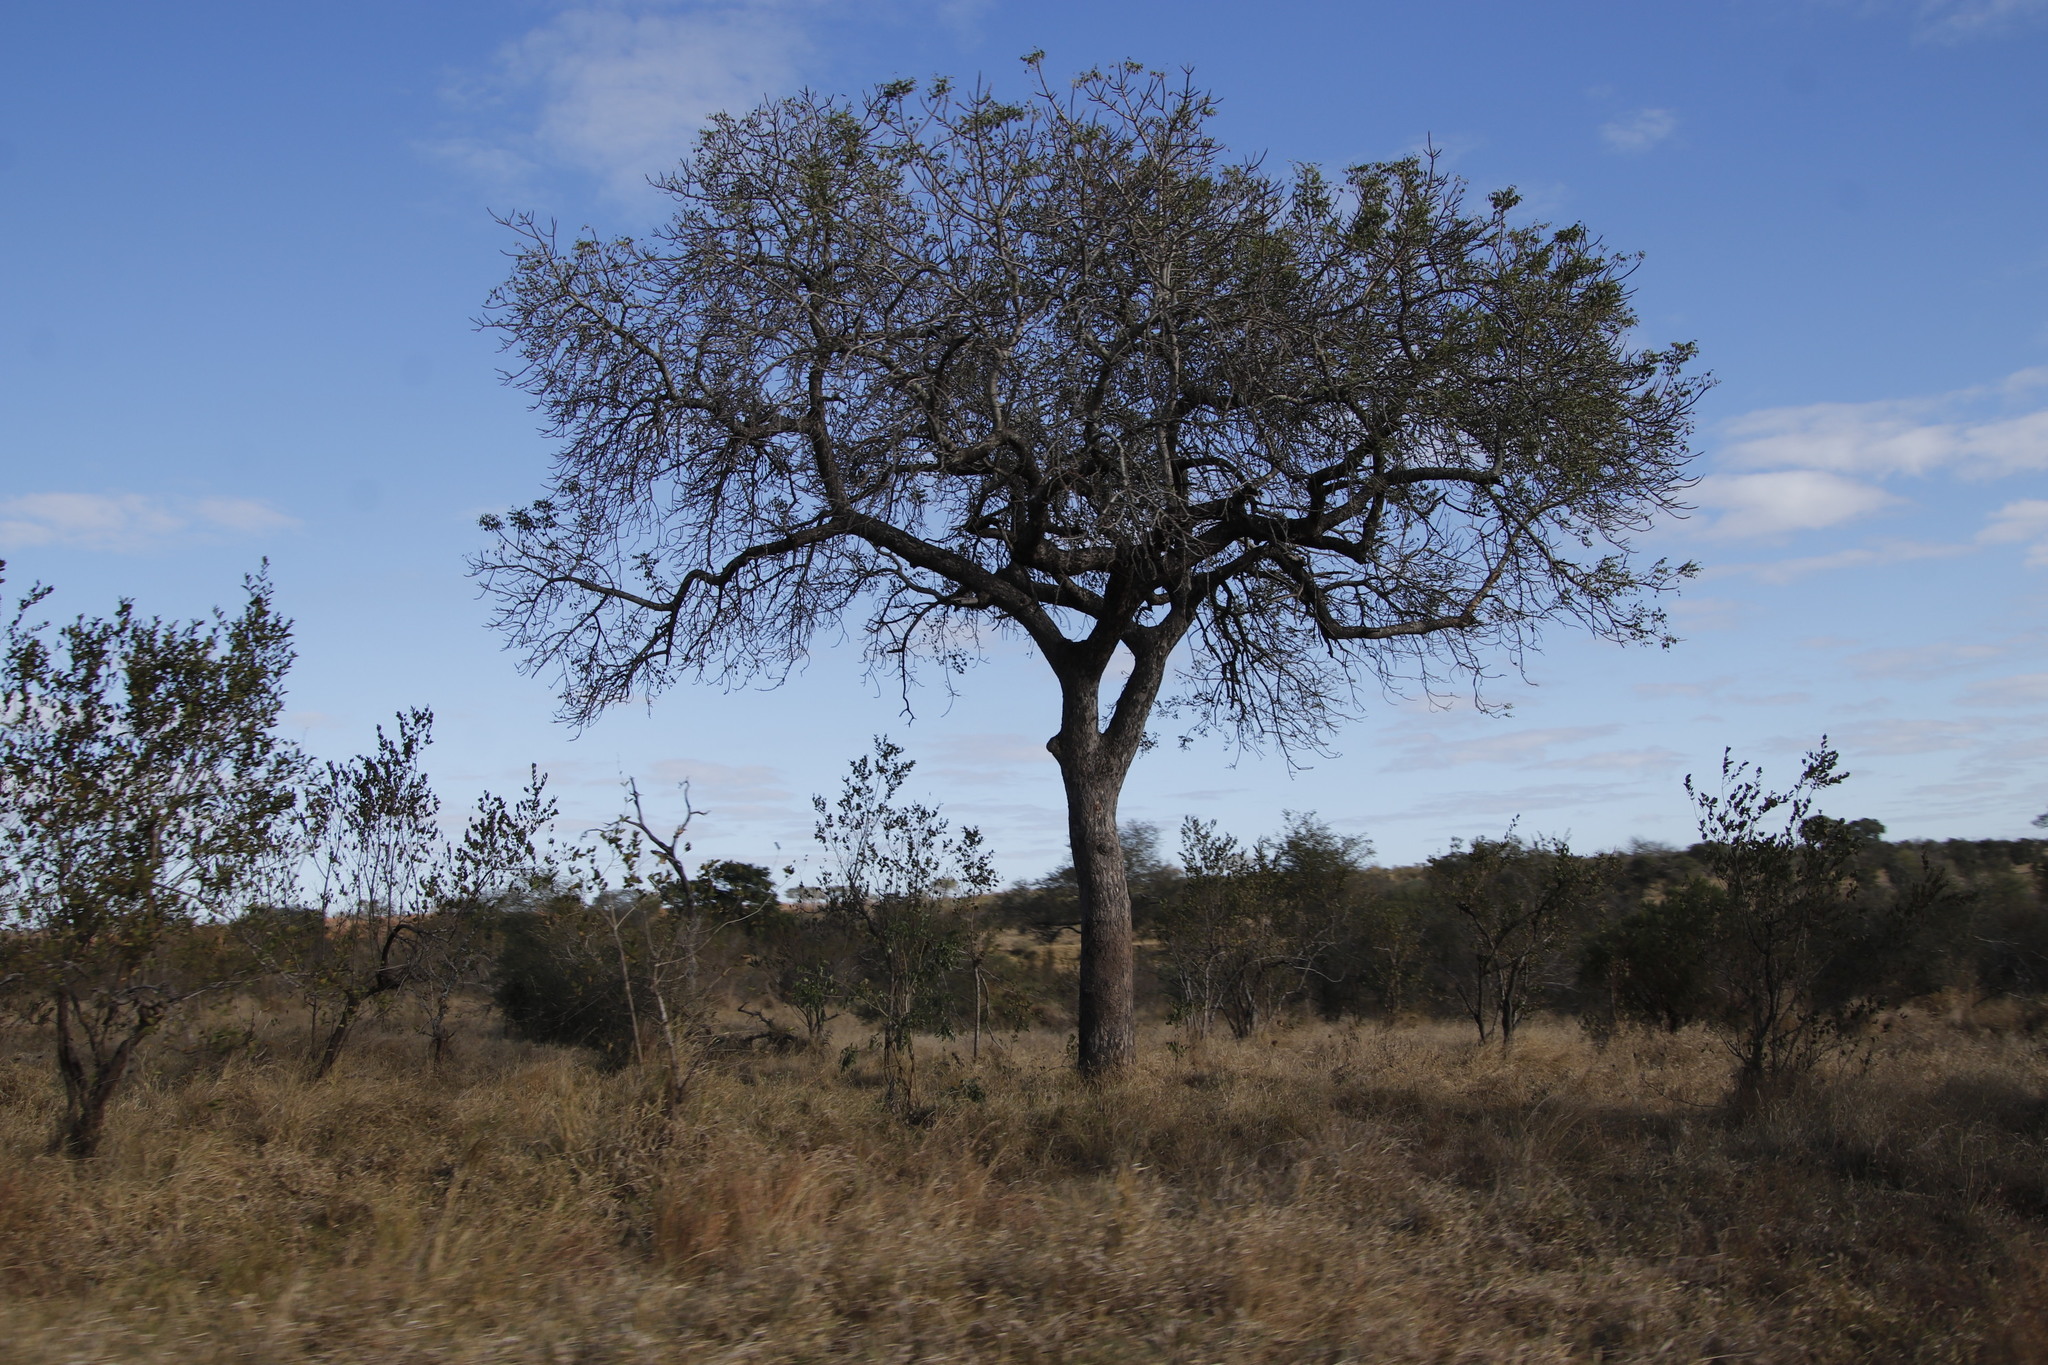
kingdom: Plantae
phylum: Tracheophyta
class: Magnoliopsida
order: Sapindales
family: Anacardiaceae
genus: Sclerocarya
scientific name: Sclerocarya birrea
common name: Marula
